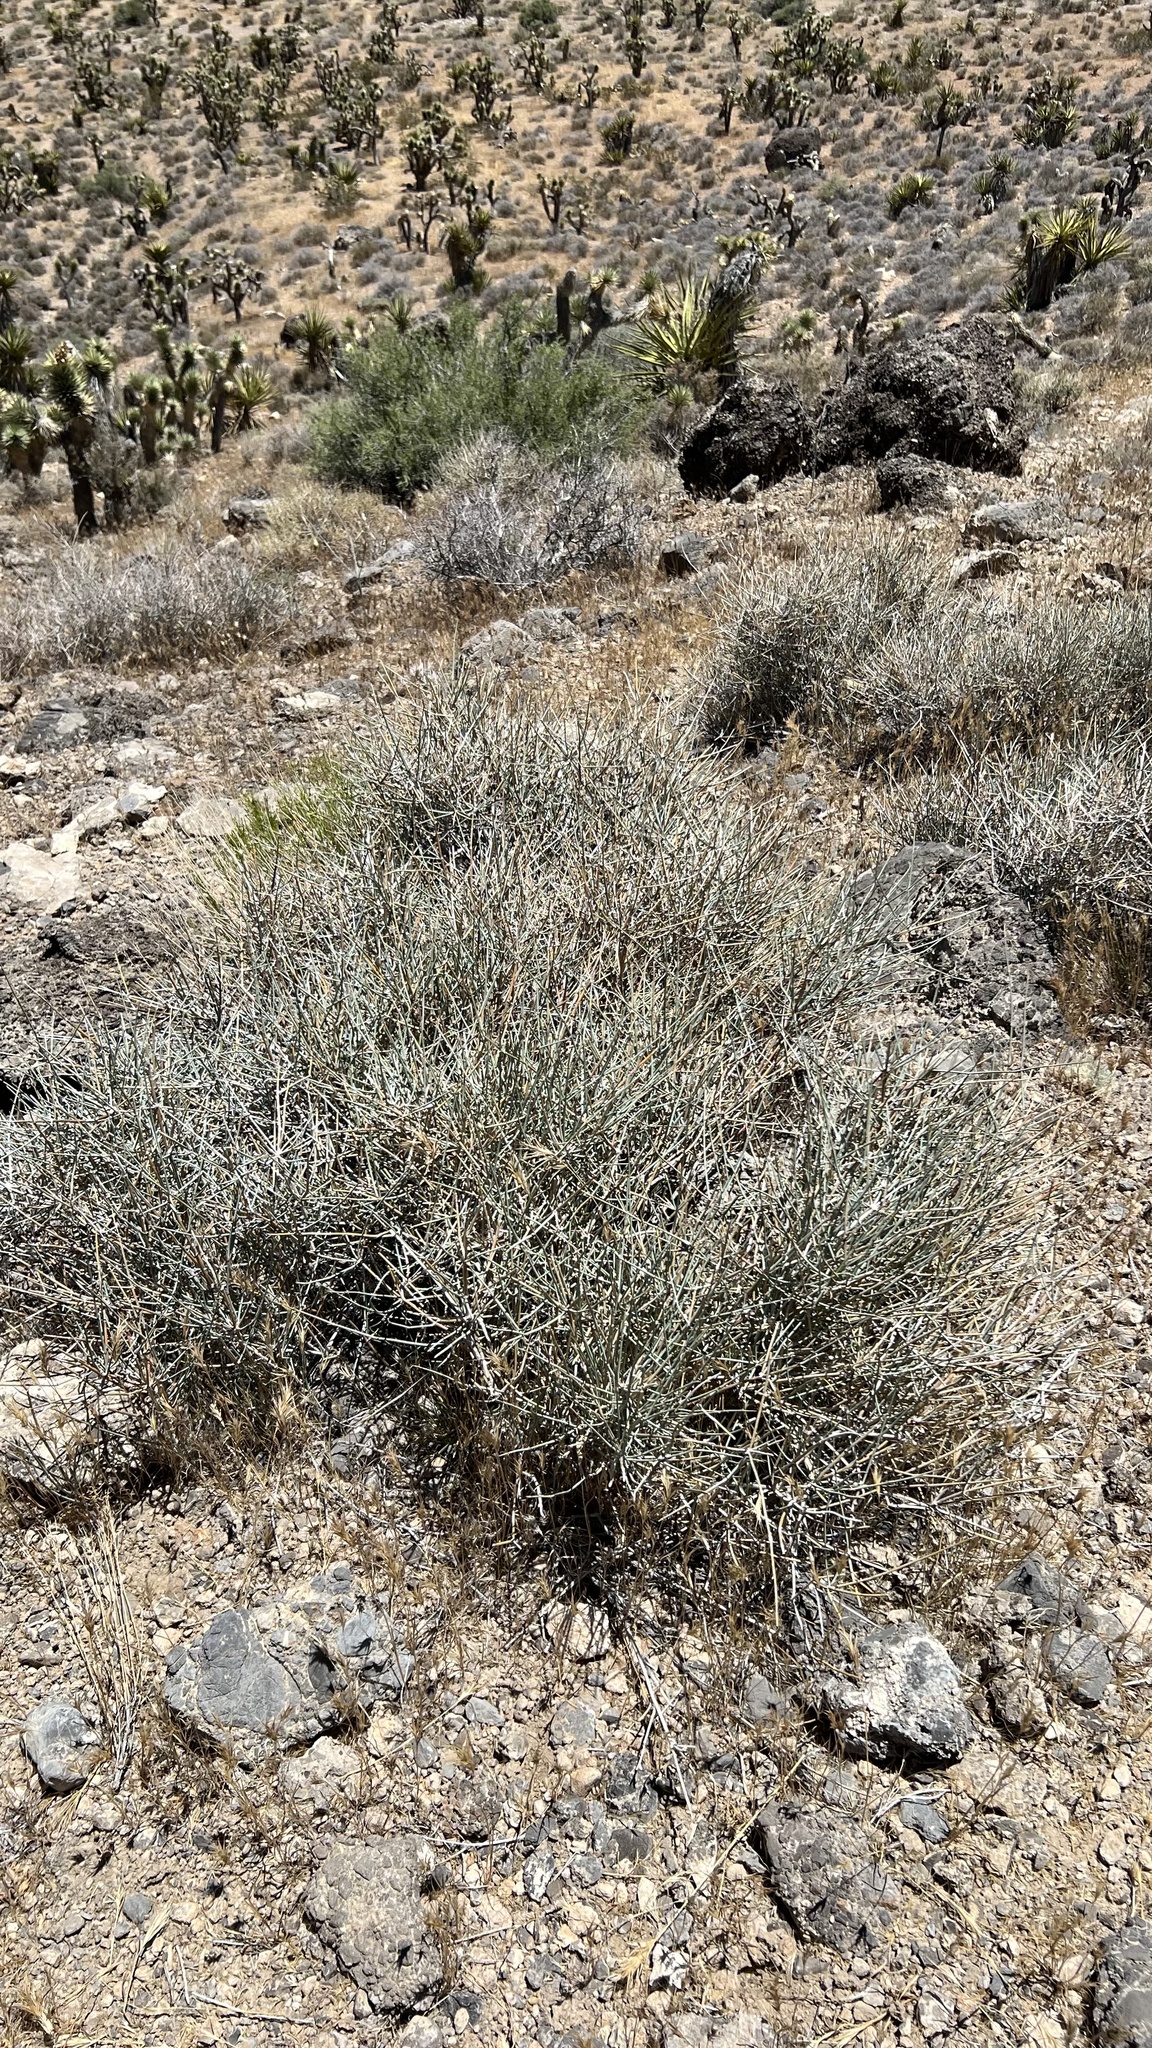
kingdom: Plantae
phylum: Tracheophyta
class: Gnetopsida
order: Ephedrales
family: Ephedraceae
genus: Ephedra
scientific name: Ephedra nevadensis
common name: Gray ephedra
